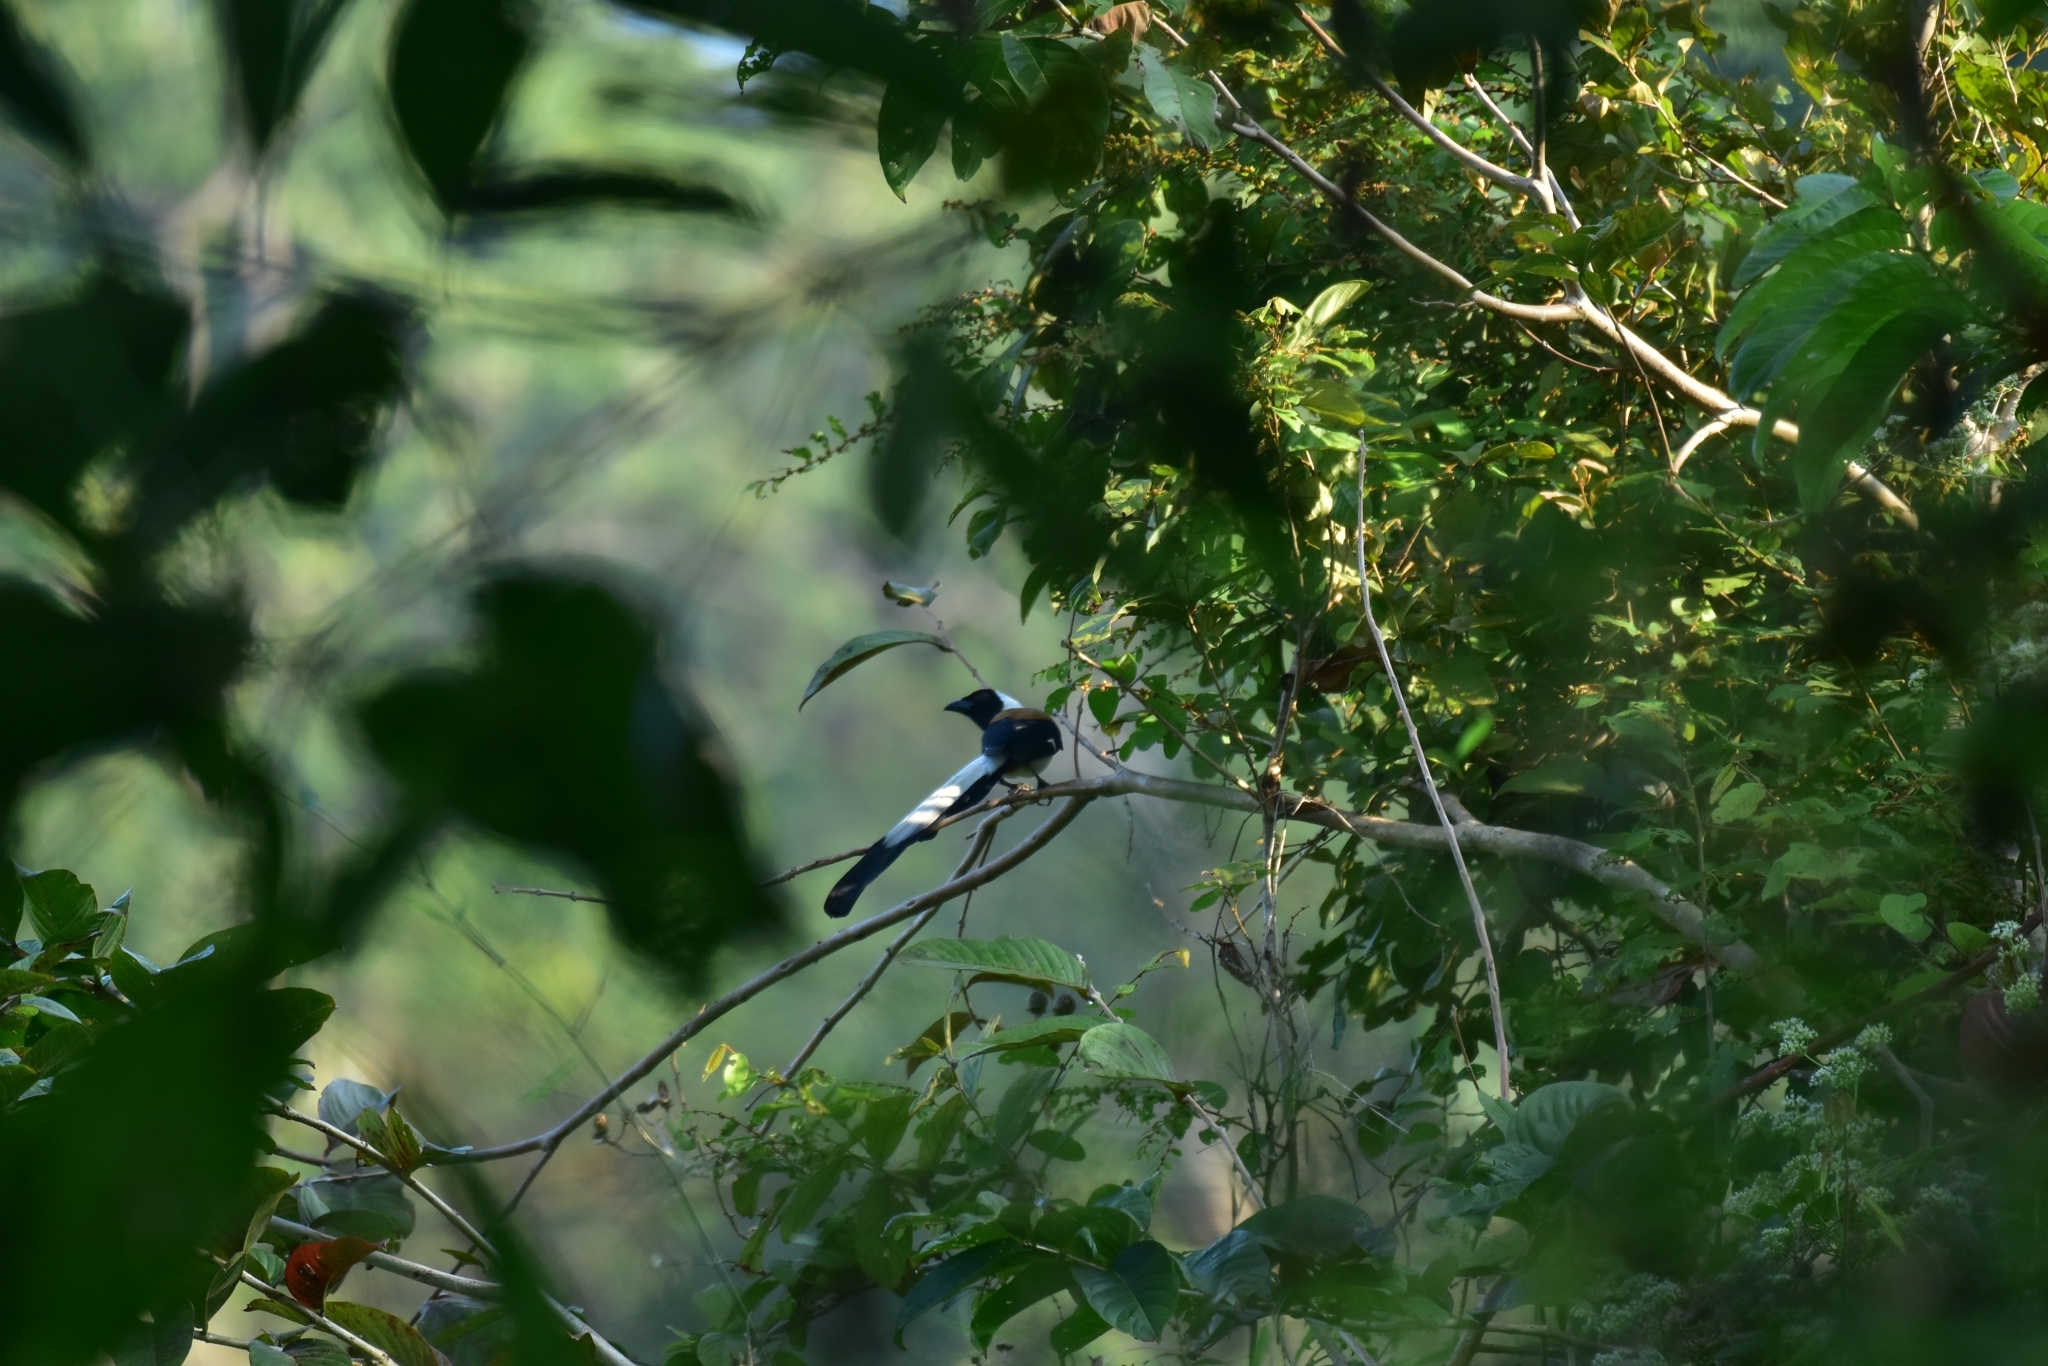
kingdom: Animalia
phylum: Chordata
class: Aves
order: Passeriformes
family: Corvidae
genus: Dendrocitta
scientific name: Dendrocitta leucogastra
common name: White-bellied treepie
